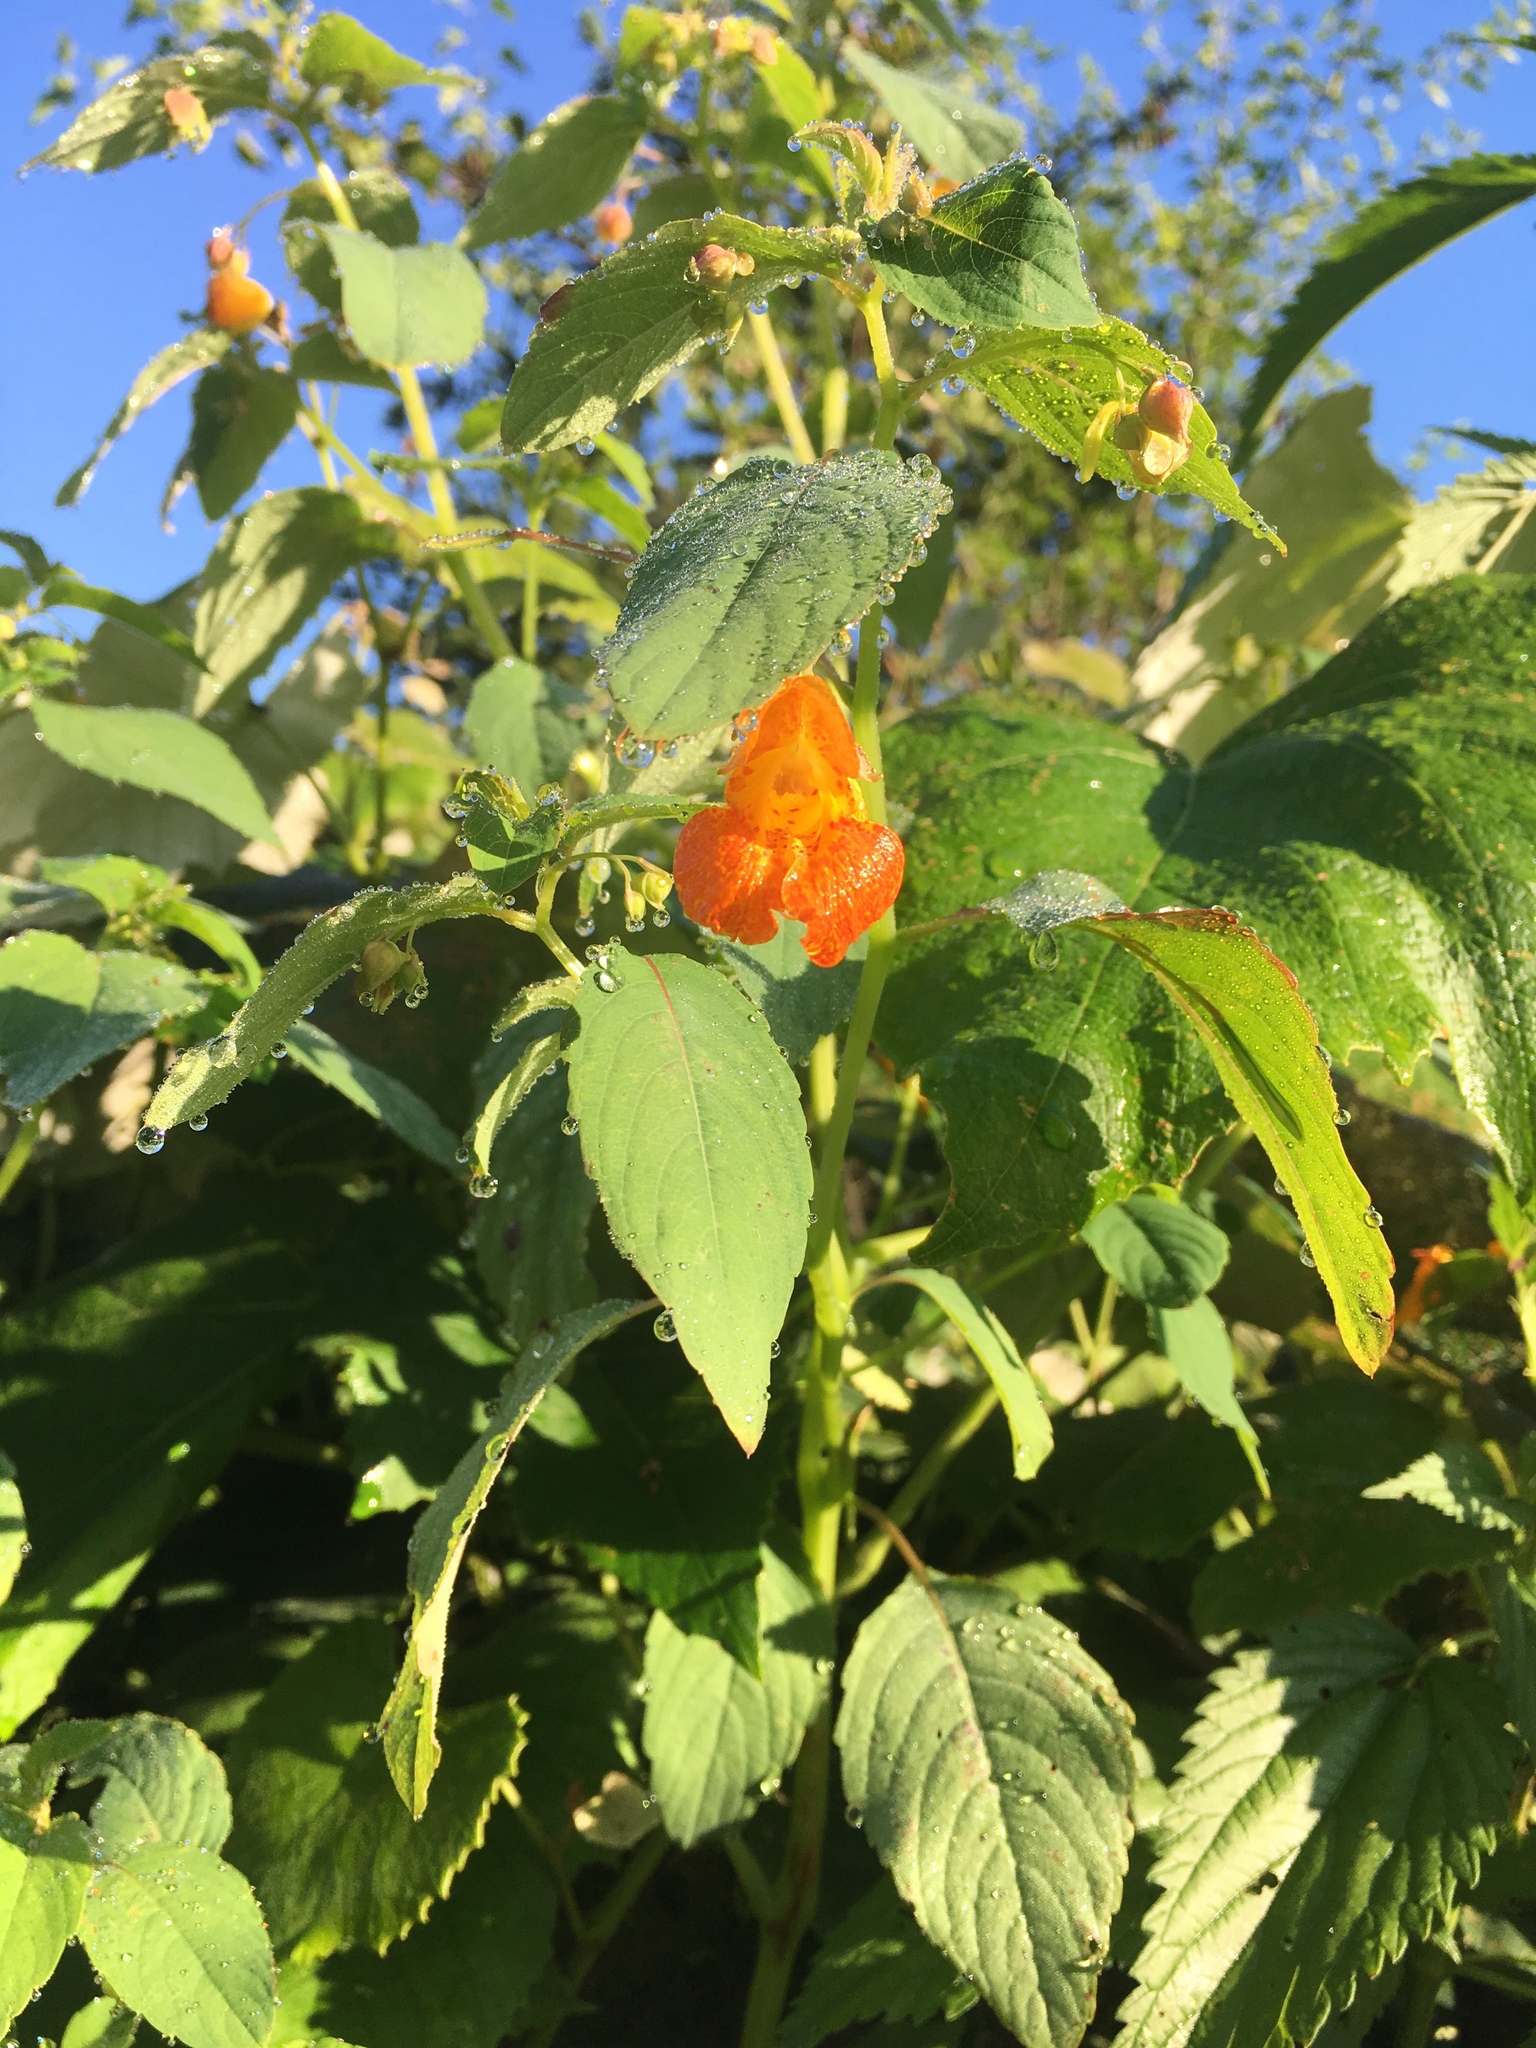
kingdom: Plantae
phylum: Tracheophyta
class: Magnoliopsida
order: Ericales
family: Balsaminaceae
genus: Impatiens
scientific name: Impatiens capensis
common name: Orange balsam
